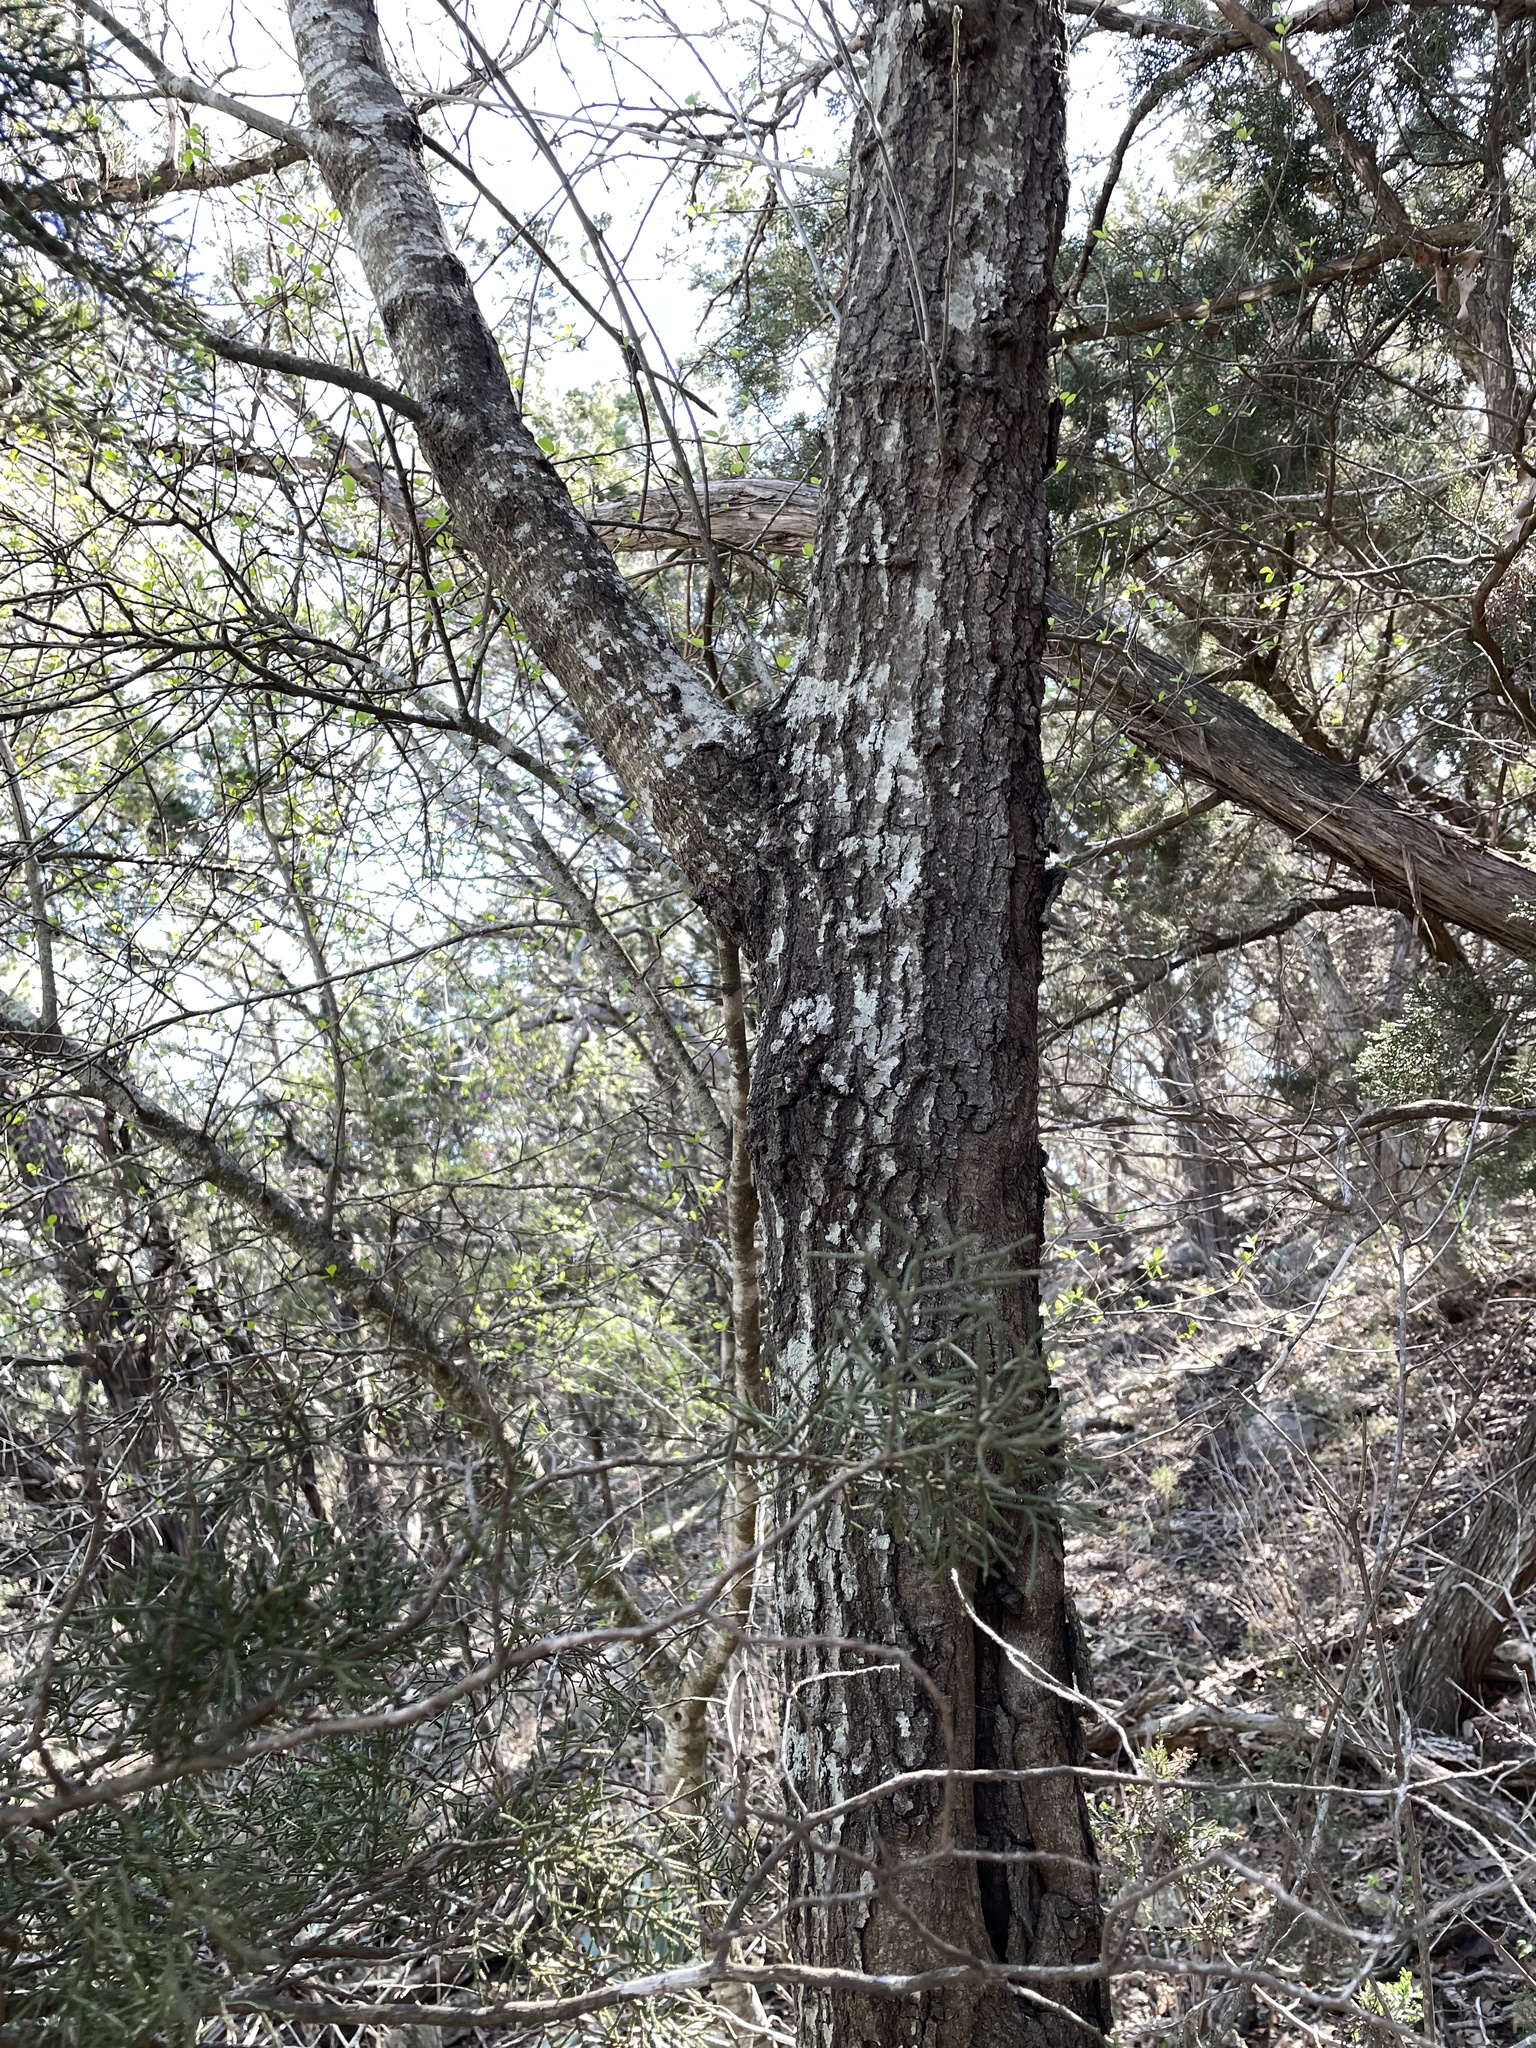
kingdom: Plantae
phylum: Tracheophyta
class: Magnoliopsida
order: Fagales
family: Fagaceae
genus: Quercus
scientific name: Quercus buckleyi
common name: Buckley oak
